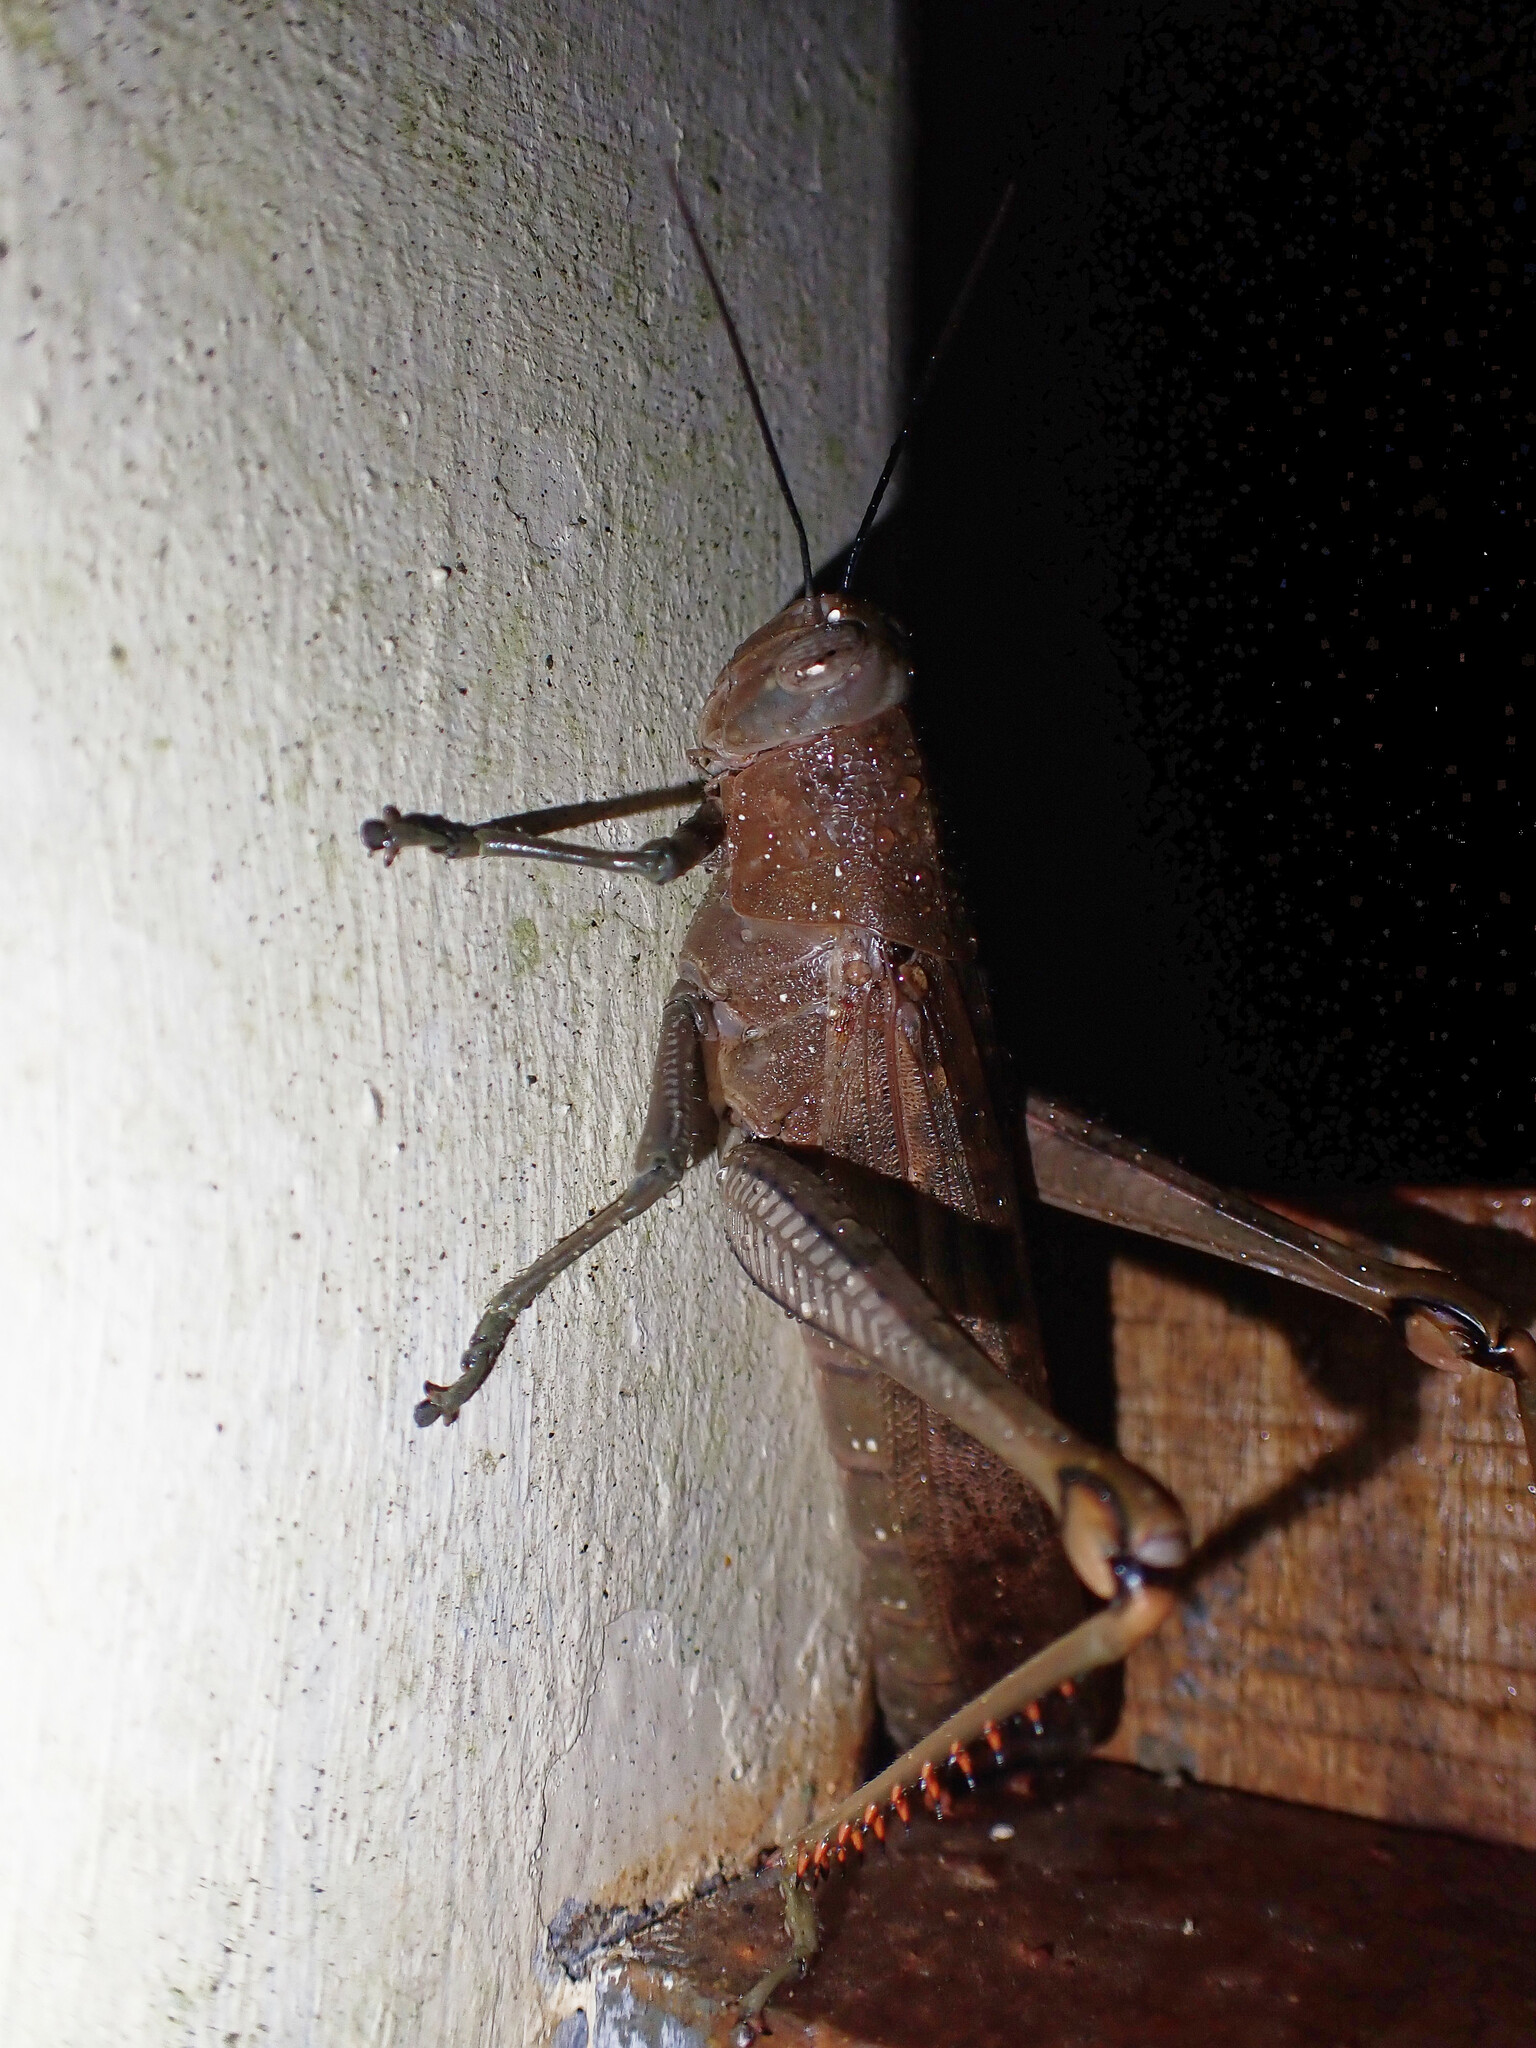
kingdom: Animalia
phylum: Arthropoda
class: Insecta
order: Orthoptera
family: Acrididae
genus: Valanga
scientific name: Valanga irregularis
